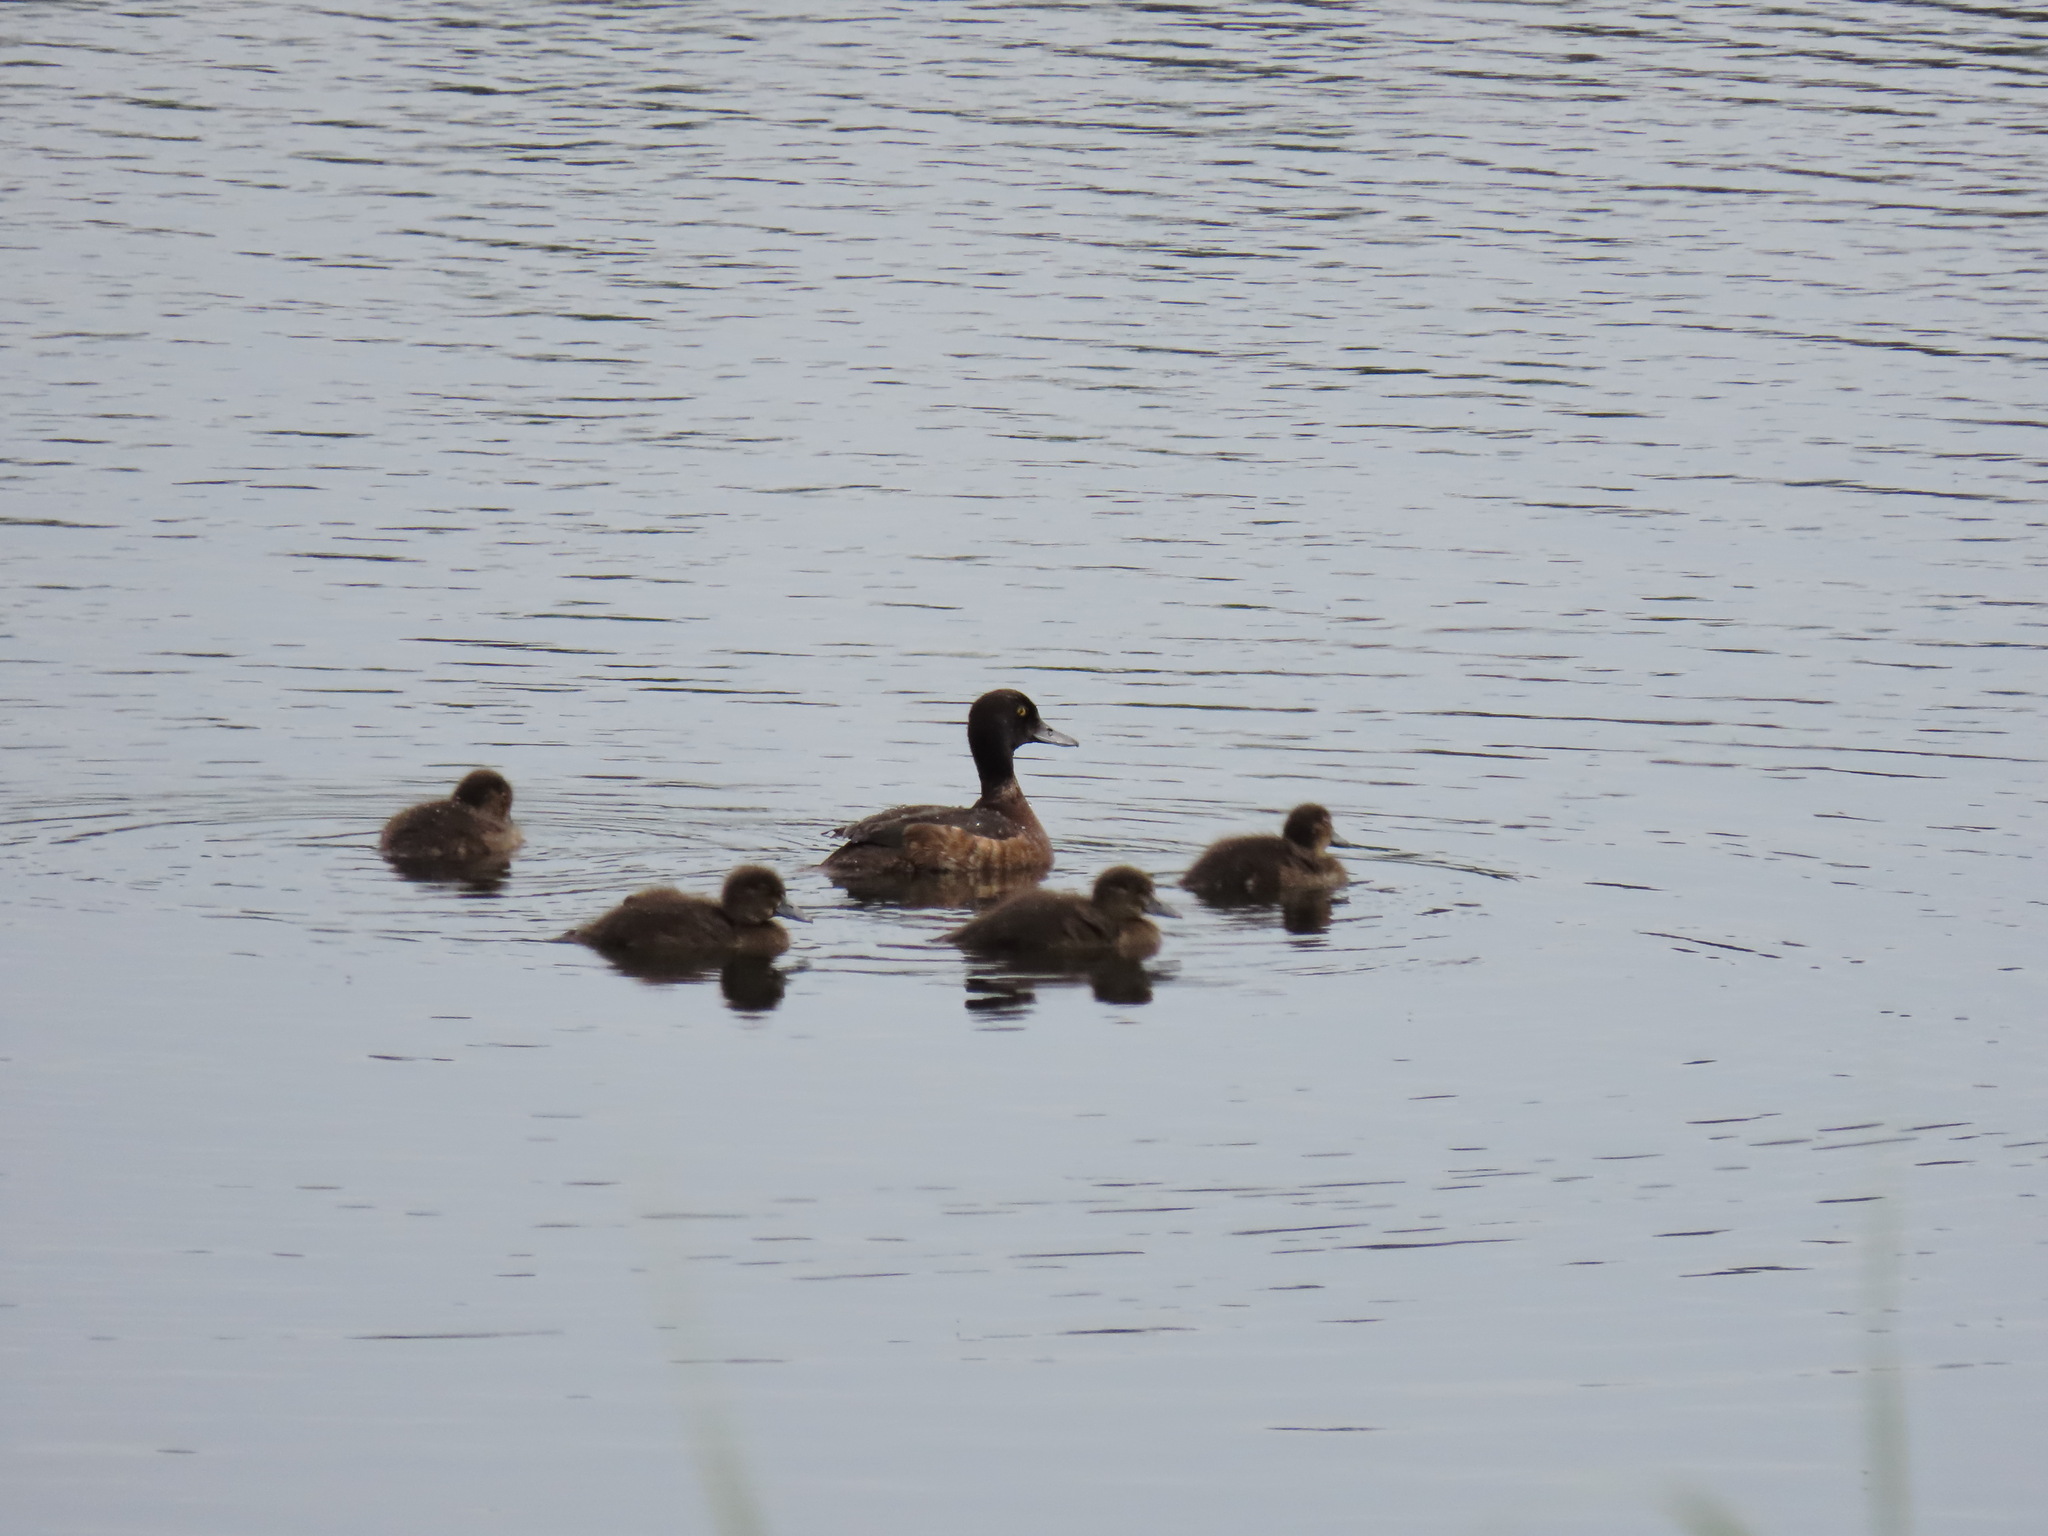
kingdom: Animalia
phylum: Chordata
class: Aves
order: Anseriformes
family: Anatidae
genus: Aythya
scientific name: Aythya fuligula
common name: Tufted duck
